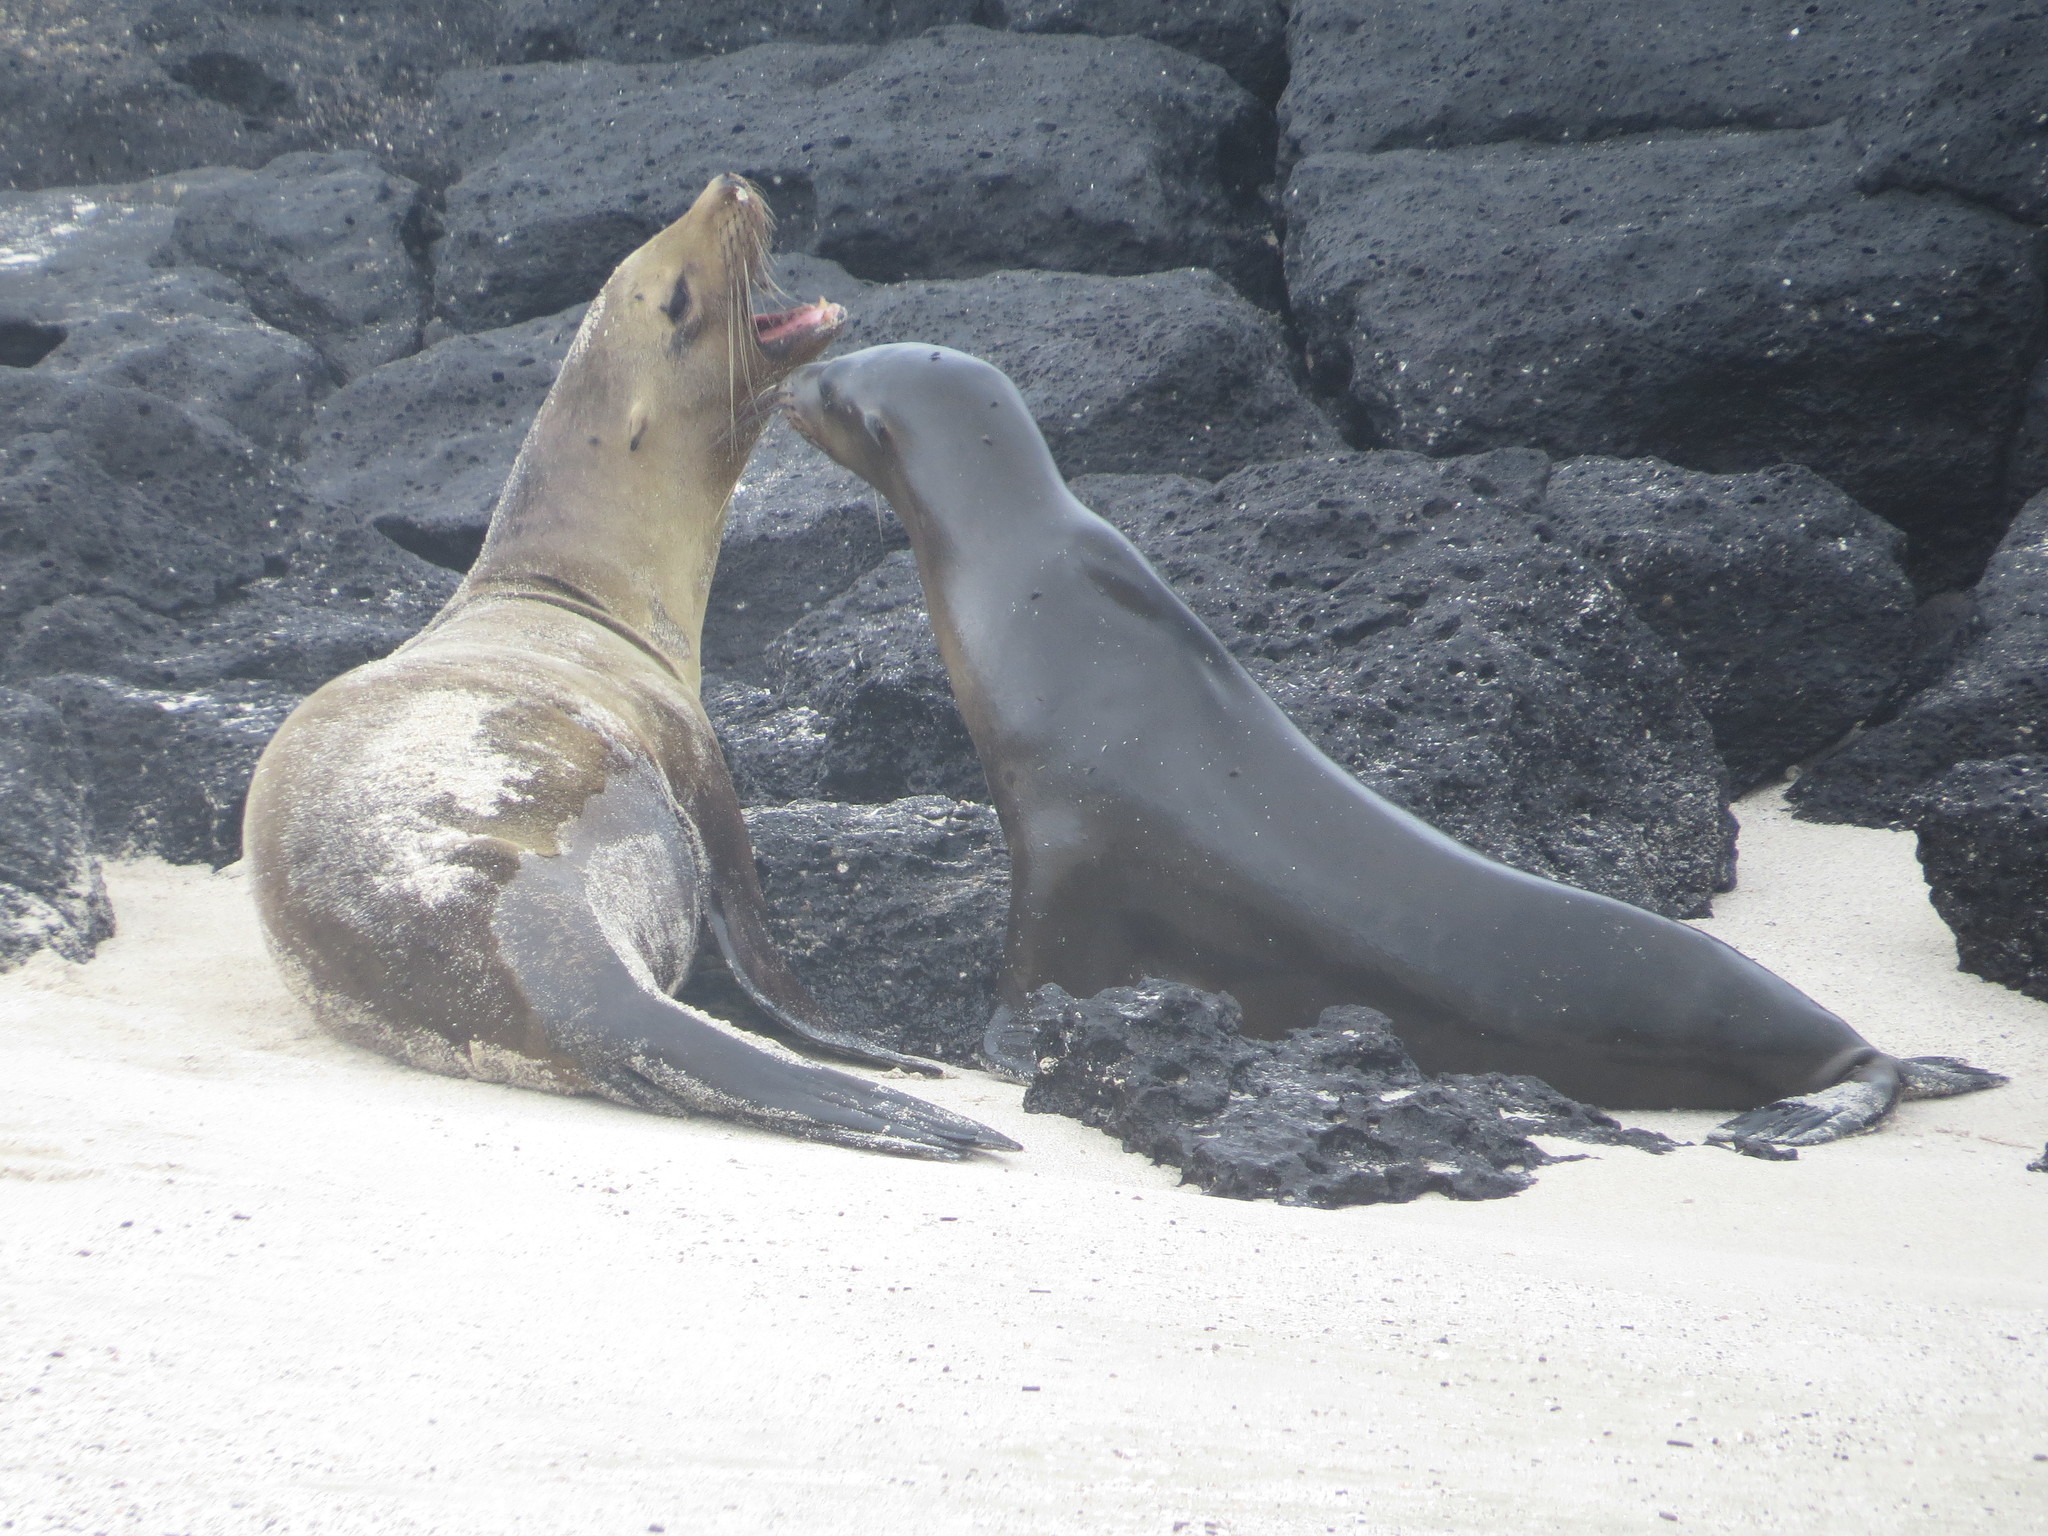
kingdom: Animalia
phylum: Chordata
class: Mammalia
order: Carnivora
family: Otariidae
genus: Zalophus
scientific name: Zalophus wollebaeki
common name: Galapagos sea lion
